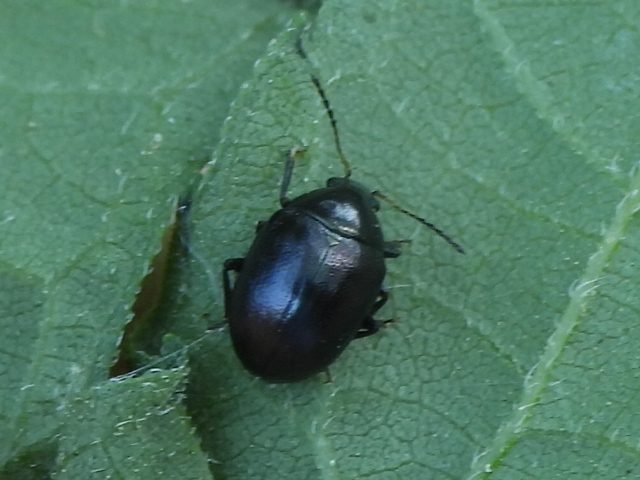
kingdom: Animalia
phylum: Arthropoda
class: Insecta
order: Coleoptera
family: Chrysomelidae
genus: Brachypnoea
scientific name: Brachypnoea tristis
